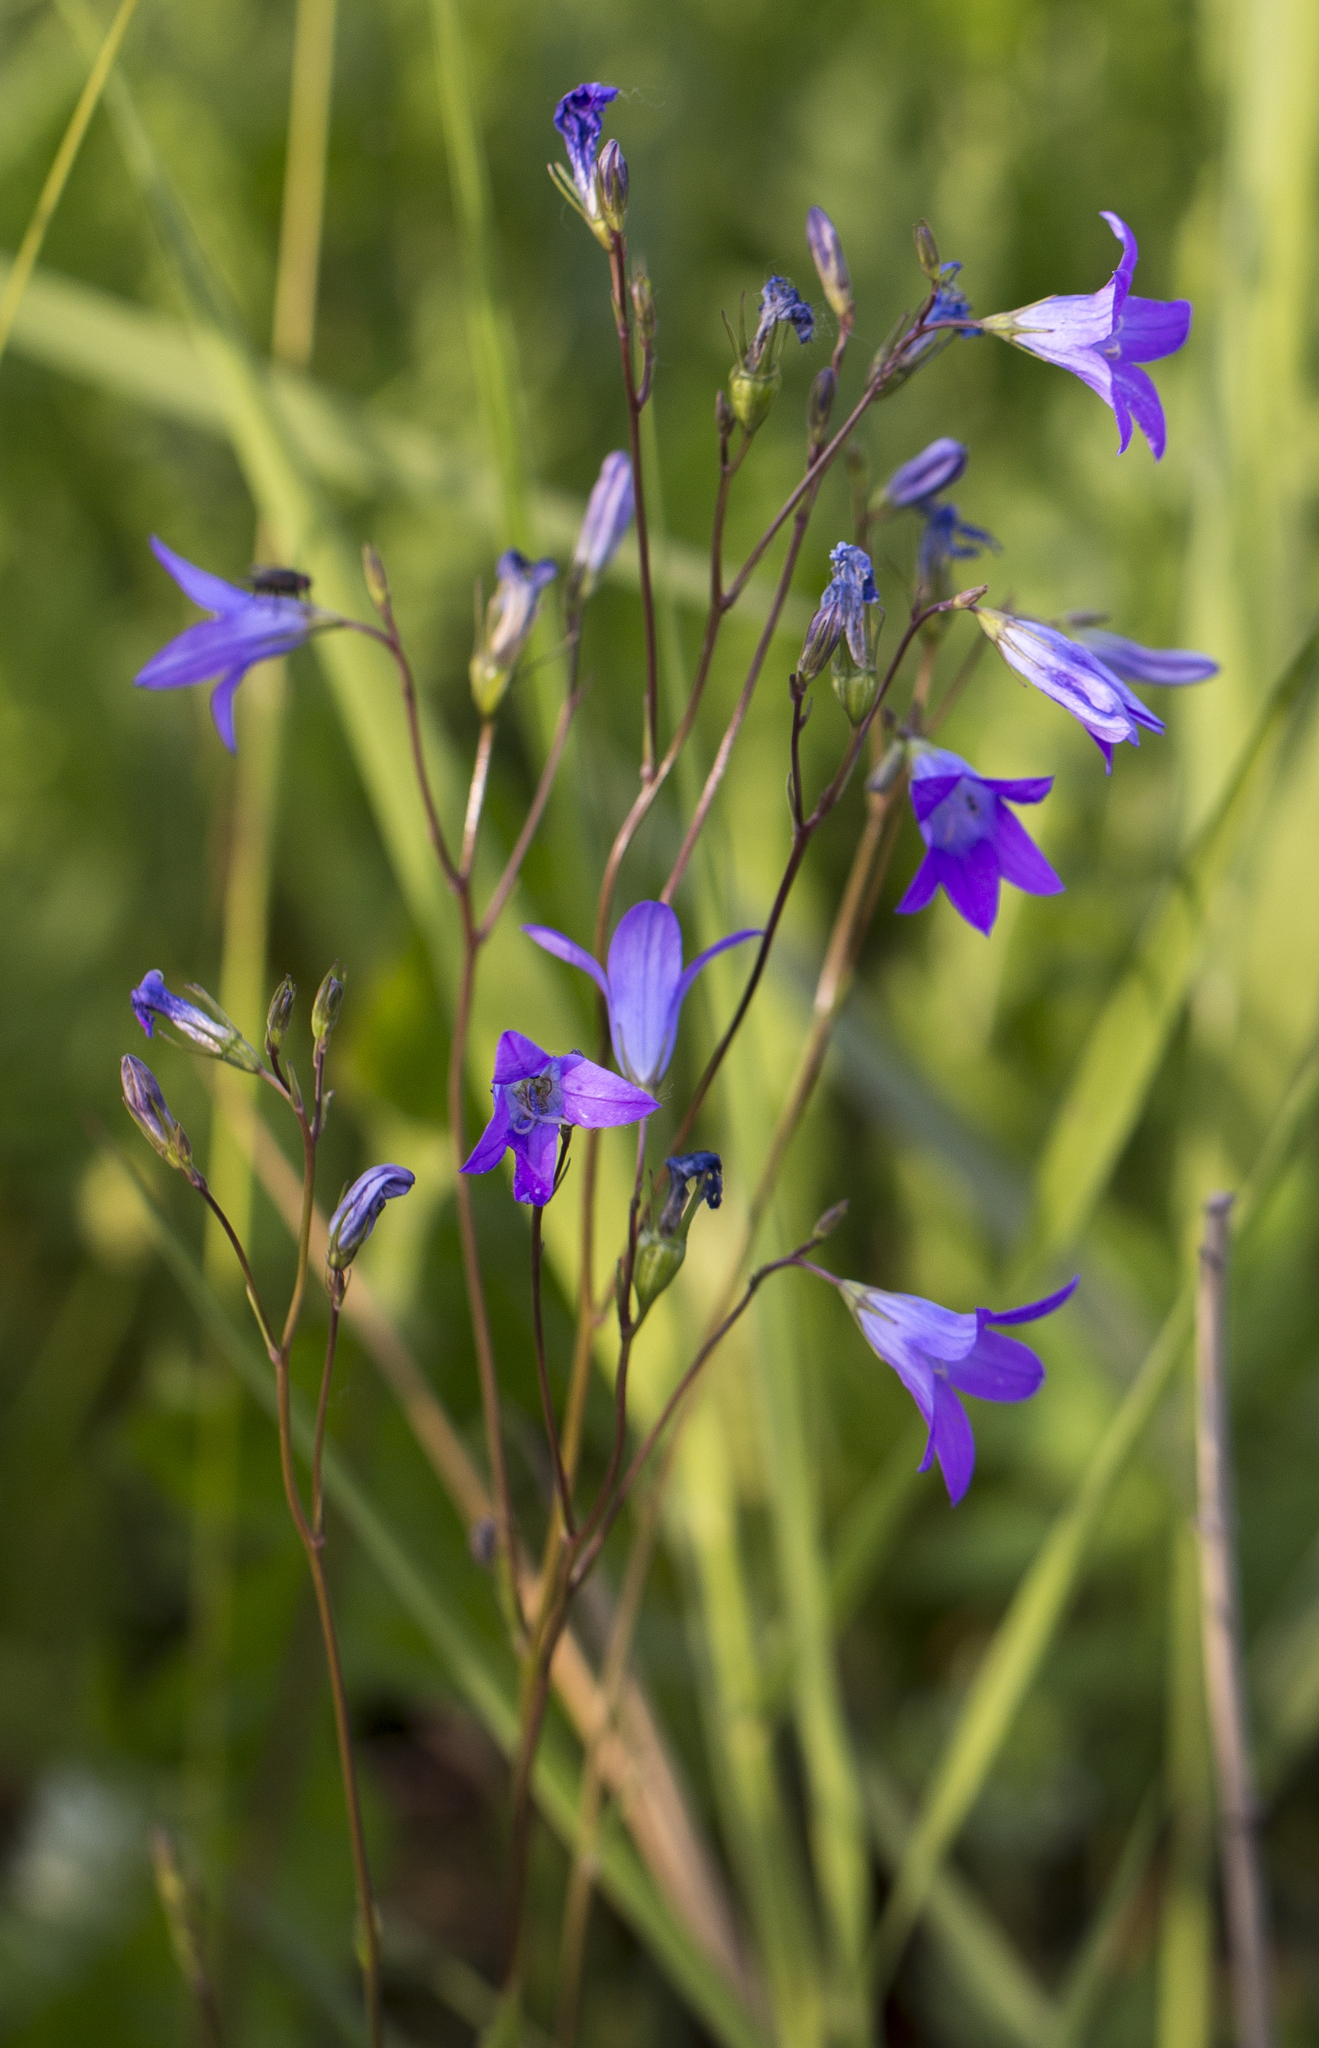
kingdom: Plantae
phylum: Tracheophyta
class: Magnoliopsida
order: Asterales
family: Campanulaceae
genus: Campanula
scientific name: Campanula patula
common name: Spreading bellflower
